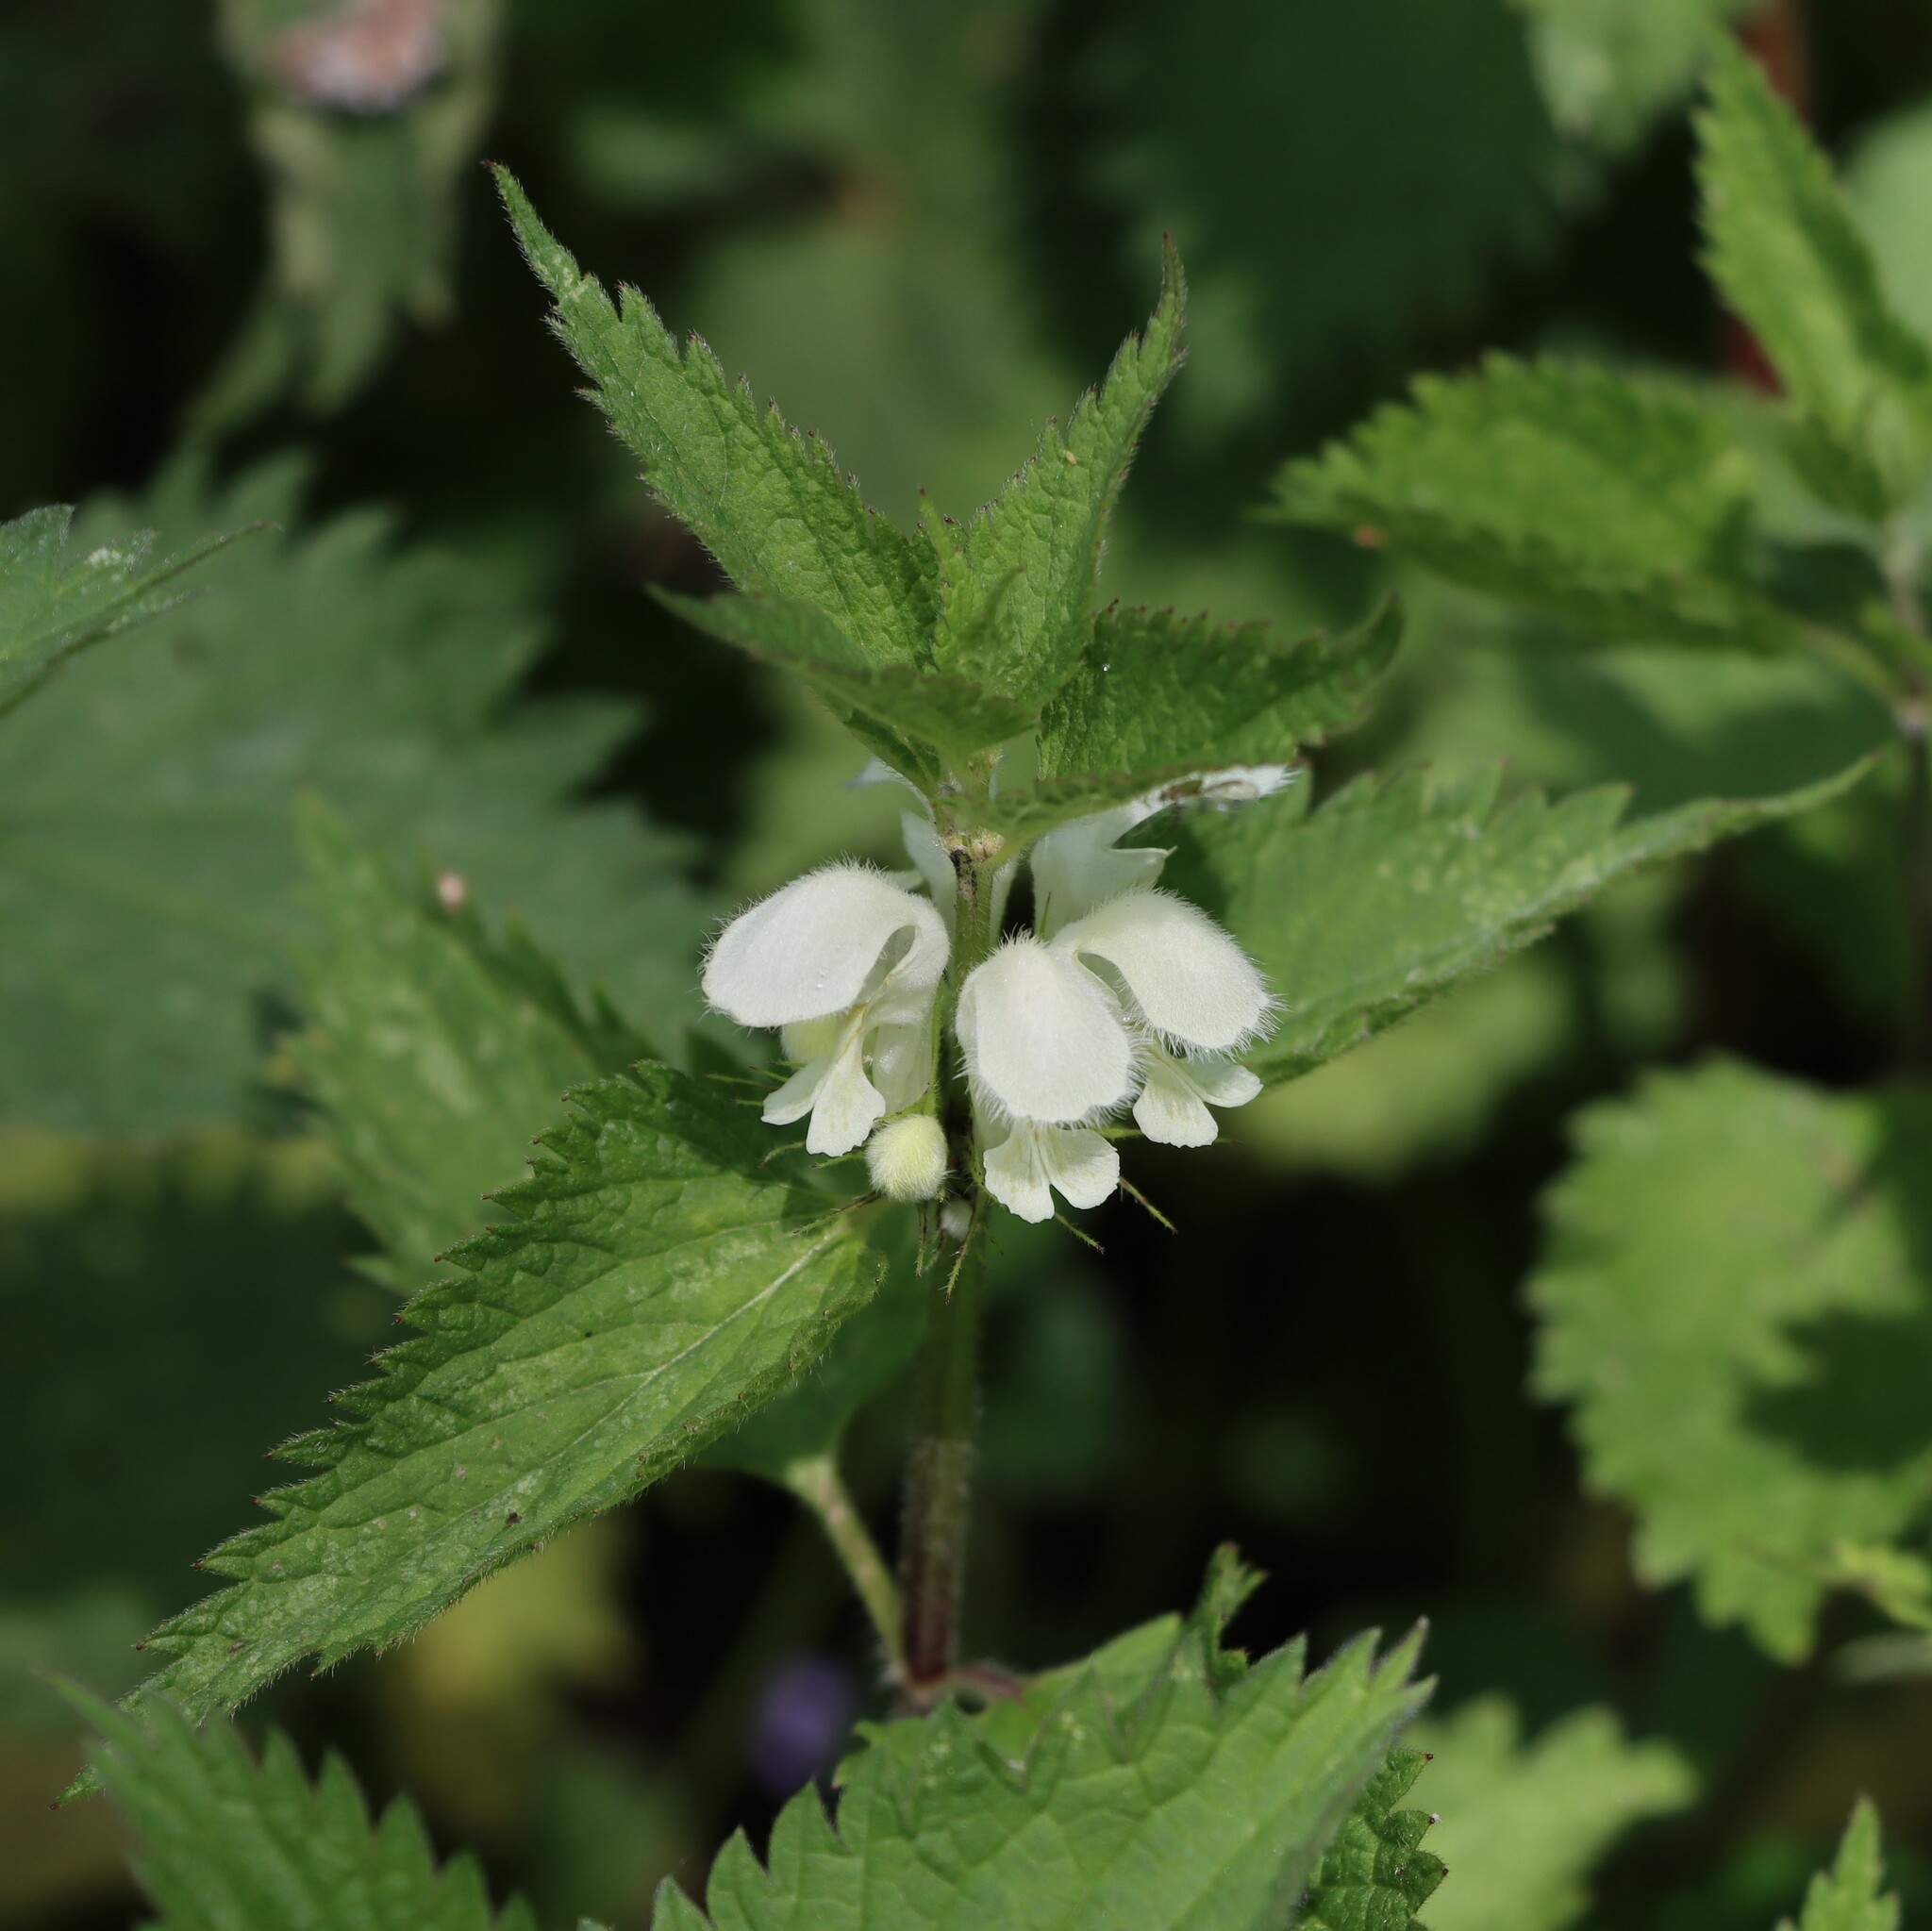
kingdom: Plantae
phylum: Tracheophyta
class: Magnoliopsida
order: Lamiales
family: Lamiaceae
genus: Lamium
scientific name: Lamium album
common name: White dead-nettle
